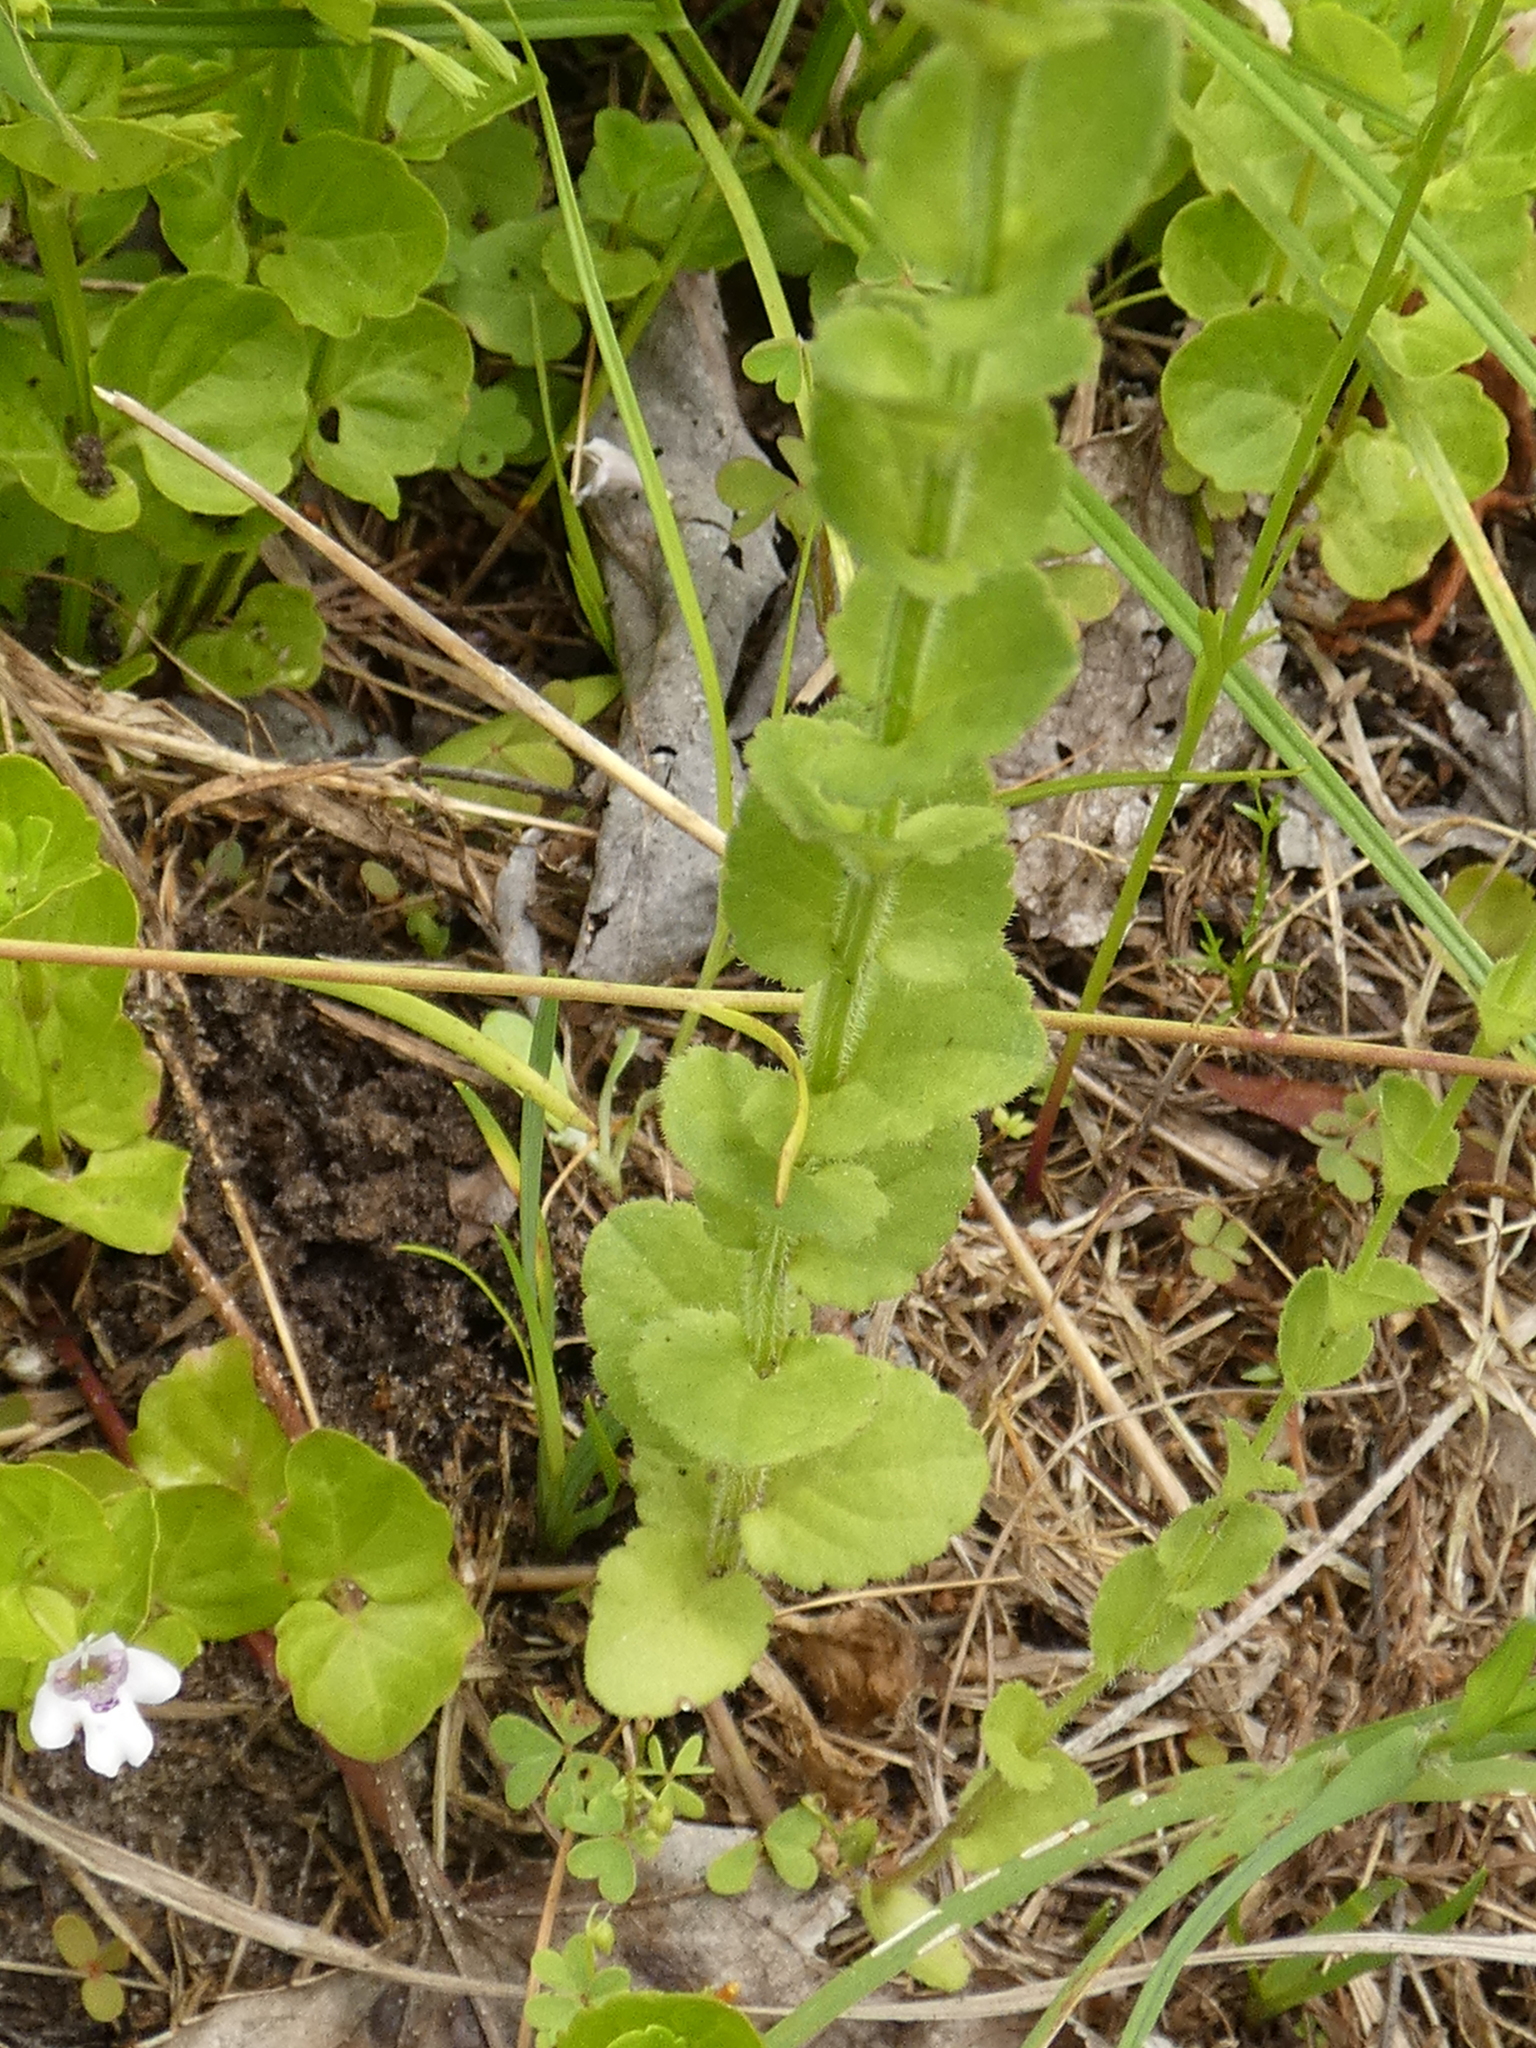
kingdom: Plantae
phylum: Tracheophyta
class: Magnoliopsida
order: Asterales
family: Campanulaceae
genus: Triodanis
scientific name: Triodanis perfoliata
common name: Clasping venus' looking-glass
